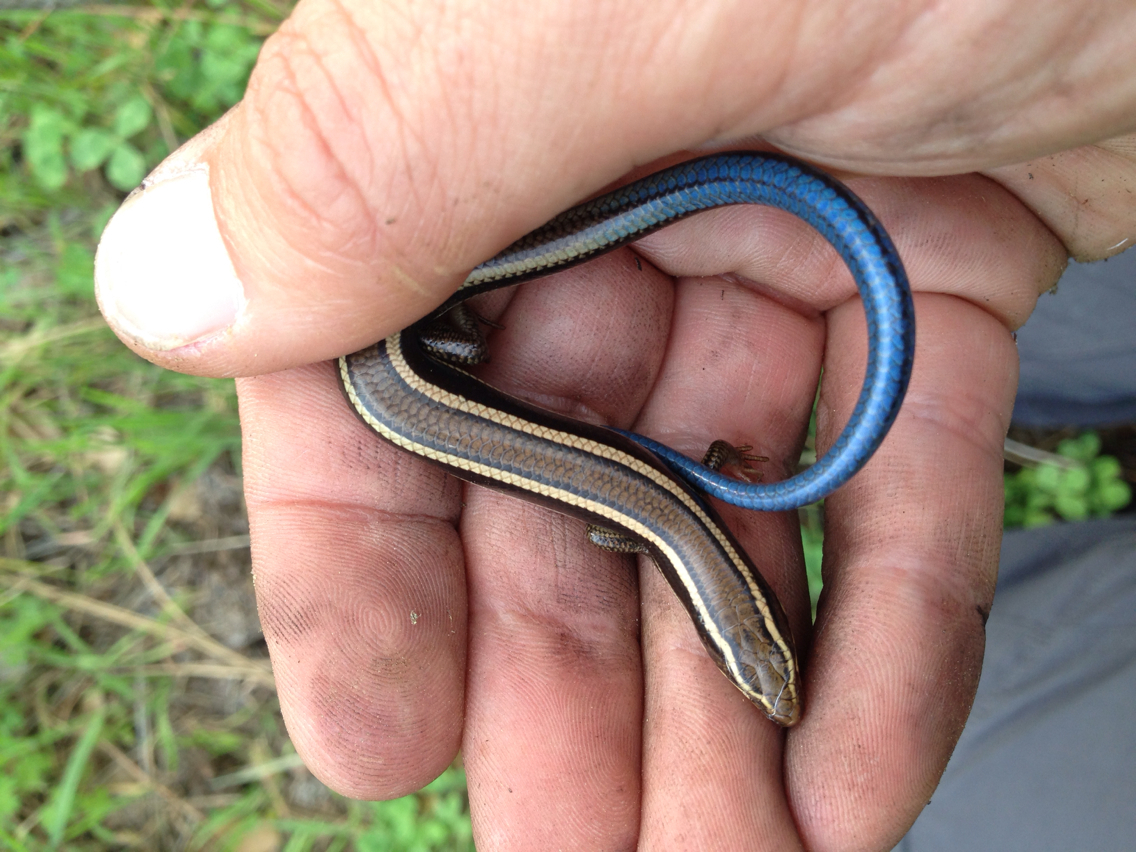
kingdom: Animalia
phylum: Chordata
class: Squamata
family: Scincidae
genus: Plestiodon
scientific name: Plestiodon skiltonianus
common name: Coronado island skink [interparietalis]
